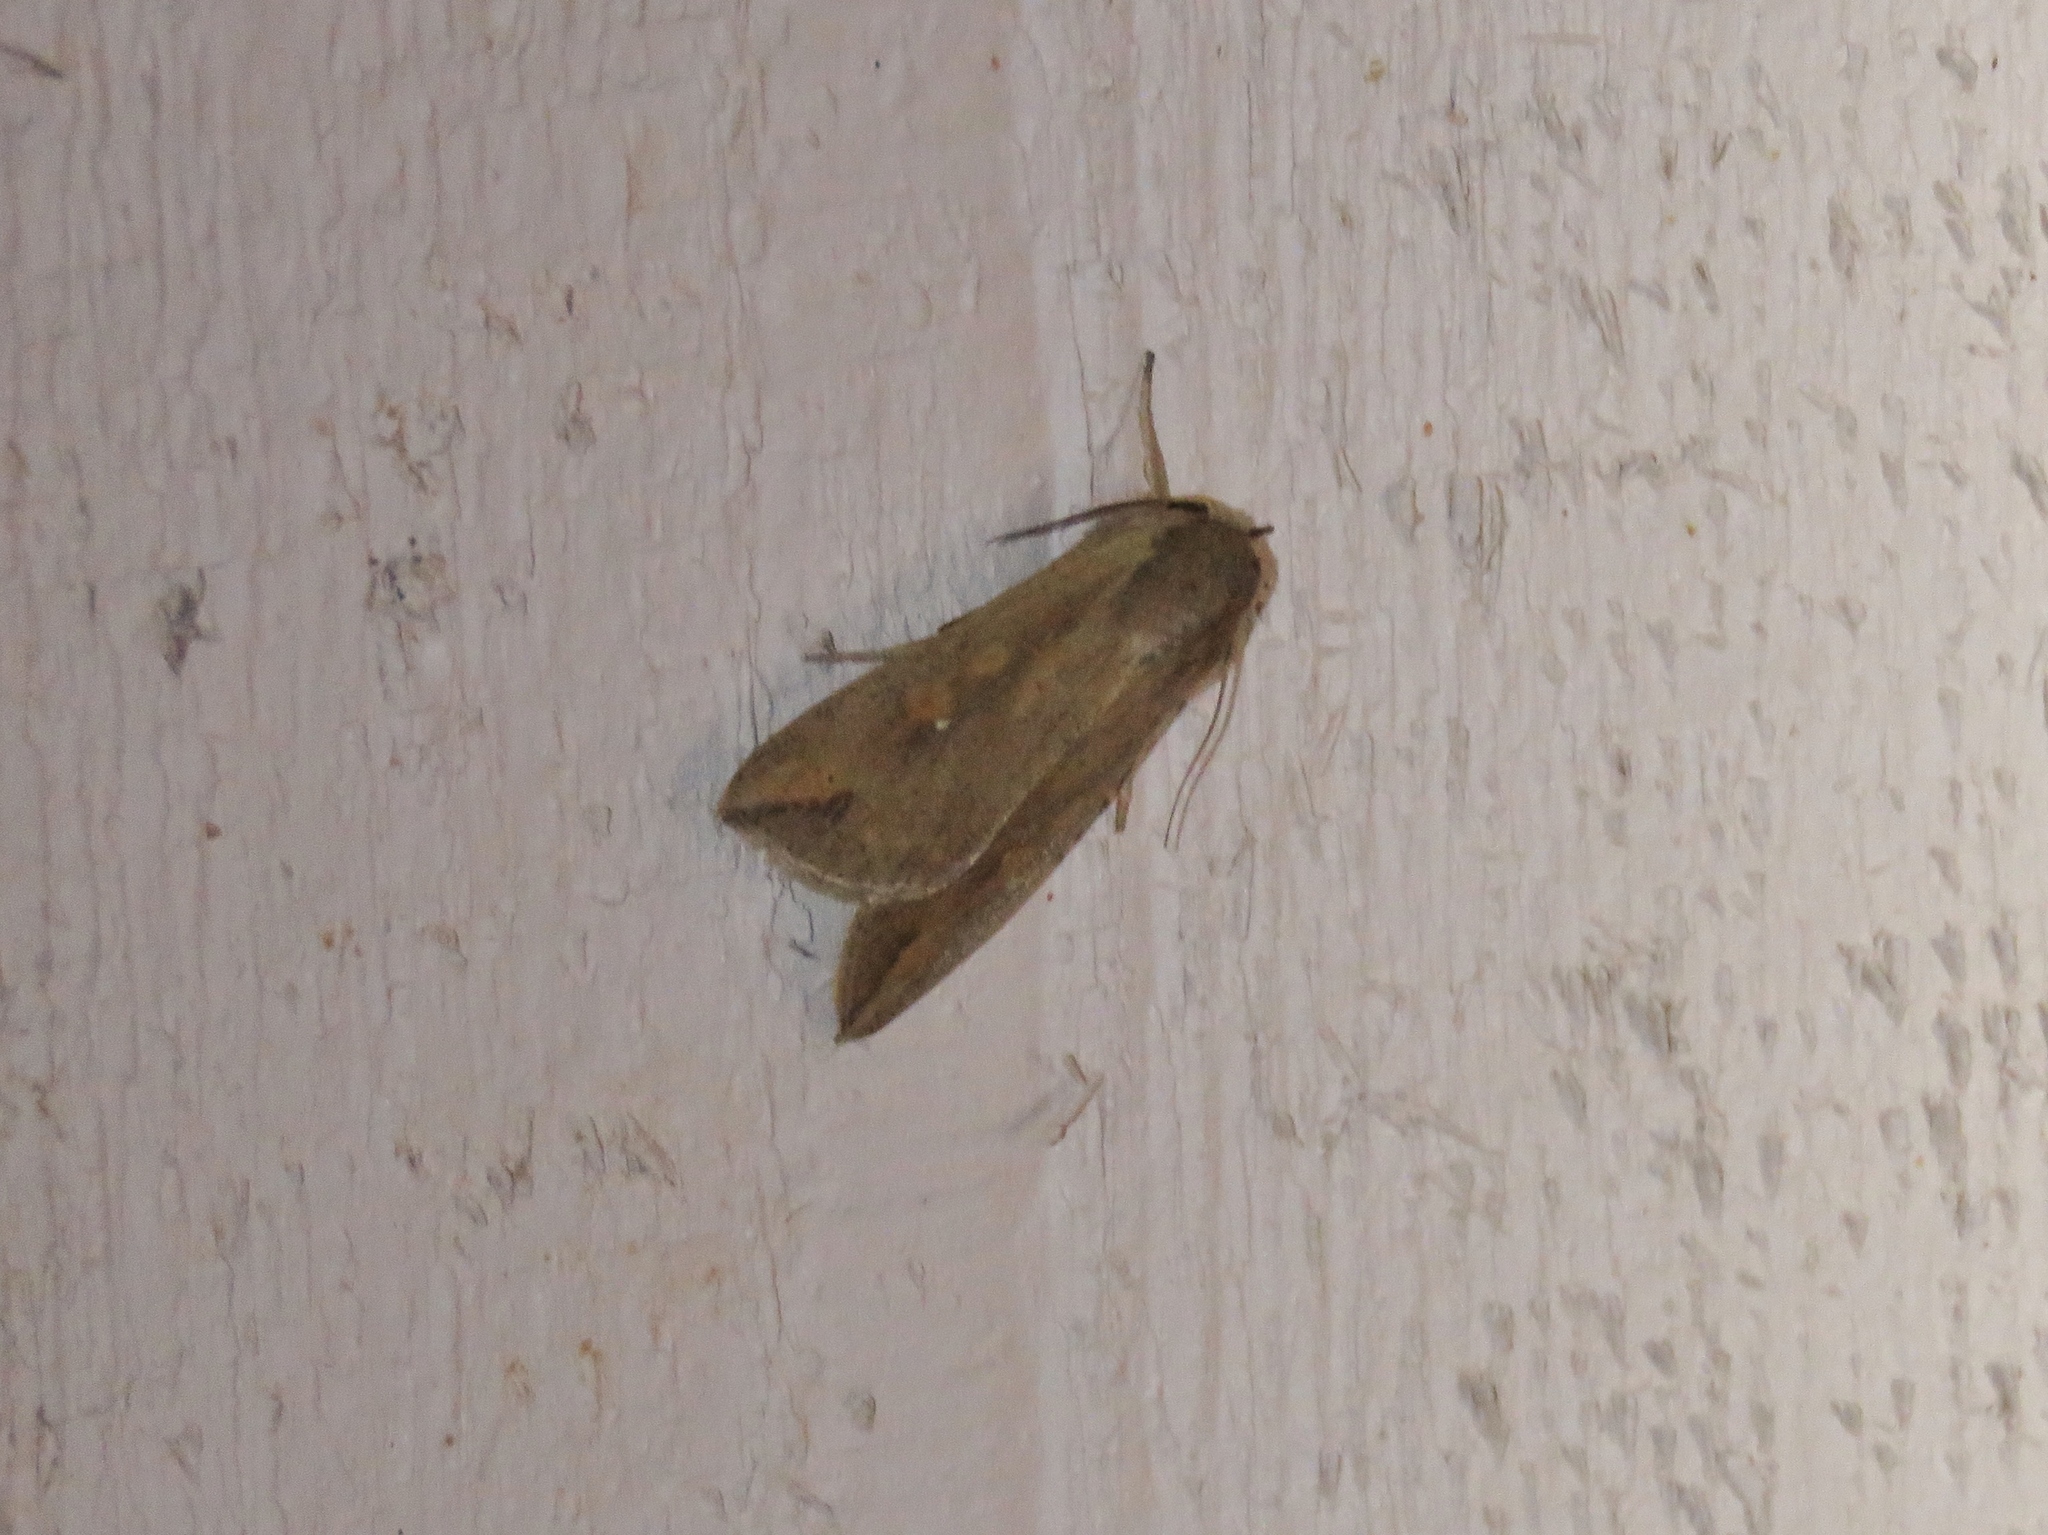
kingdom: Animalia
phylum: Arthropoda
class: Insecta
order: Lepidoptera
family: Noctuidae
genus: Mythimna
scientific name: Mythimna unipuncta
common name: White-speck
